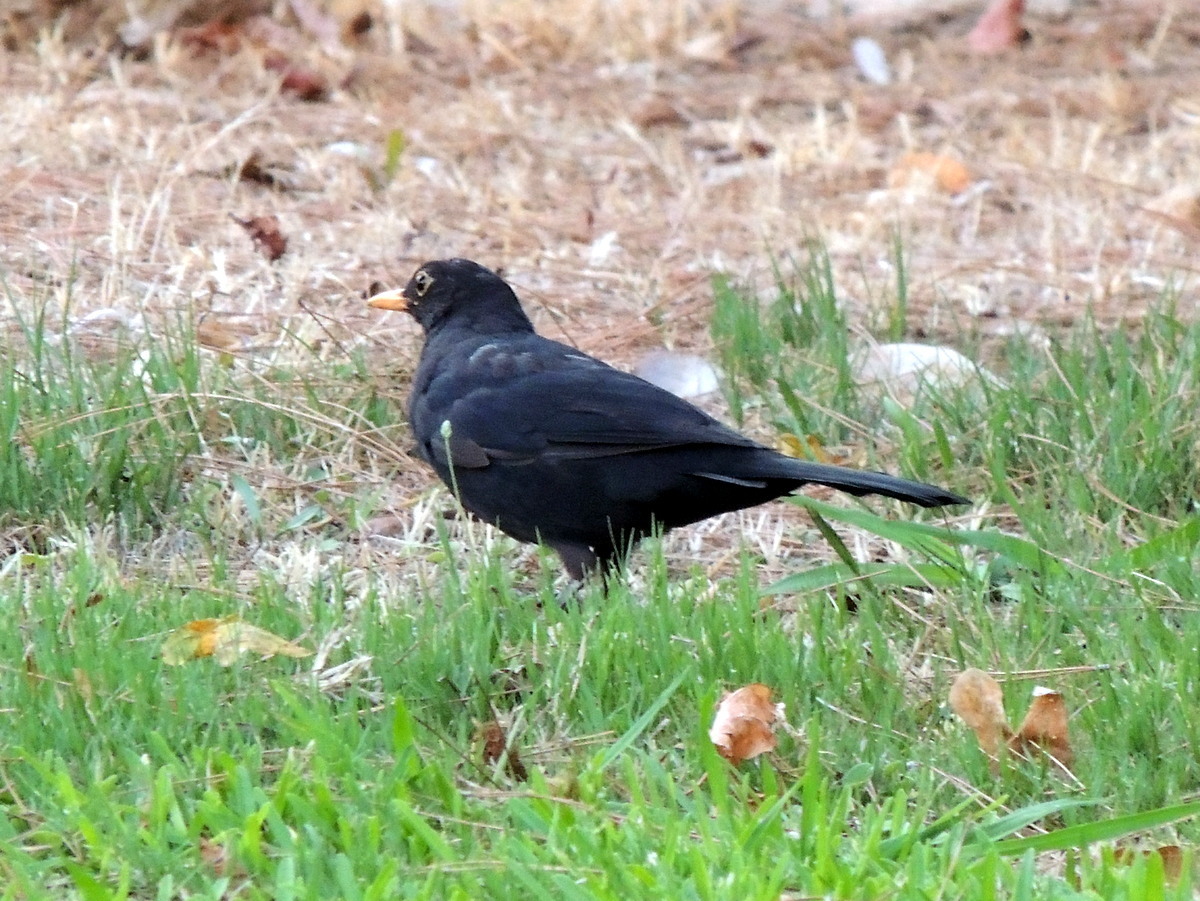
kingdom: Animalia
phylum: Chordata
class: Aves
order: Passeriformes
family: Turdidae
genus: Turdus
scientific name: Turdus merula
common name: Common blackbird
